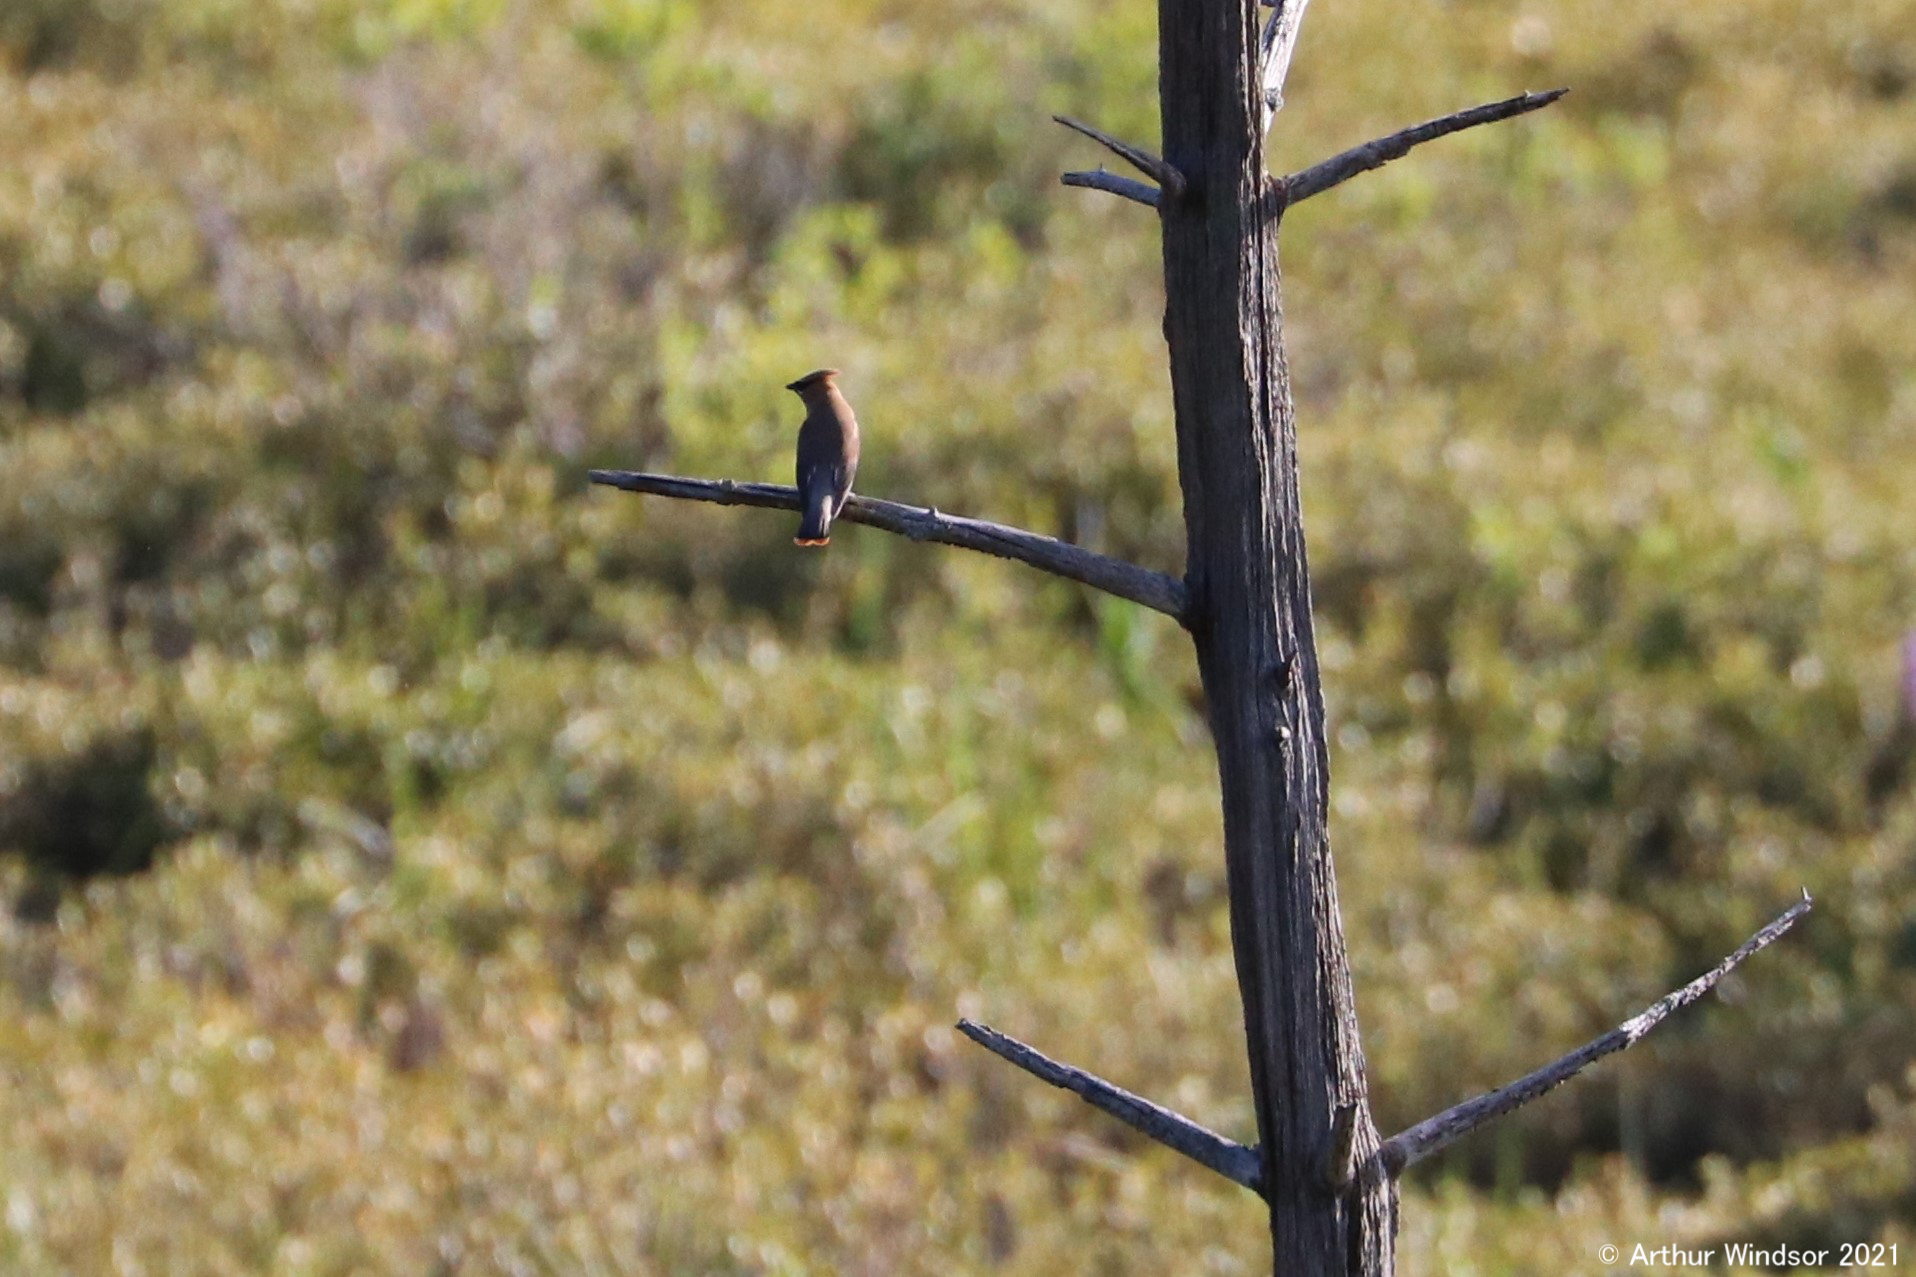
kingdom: Animalia
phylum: Chordata
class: Aves
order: Passeriformes
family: Bombycillidae
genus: Bombycilla
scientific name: Bombycilla cedrorum
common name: Cedar waxwing
